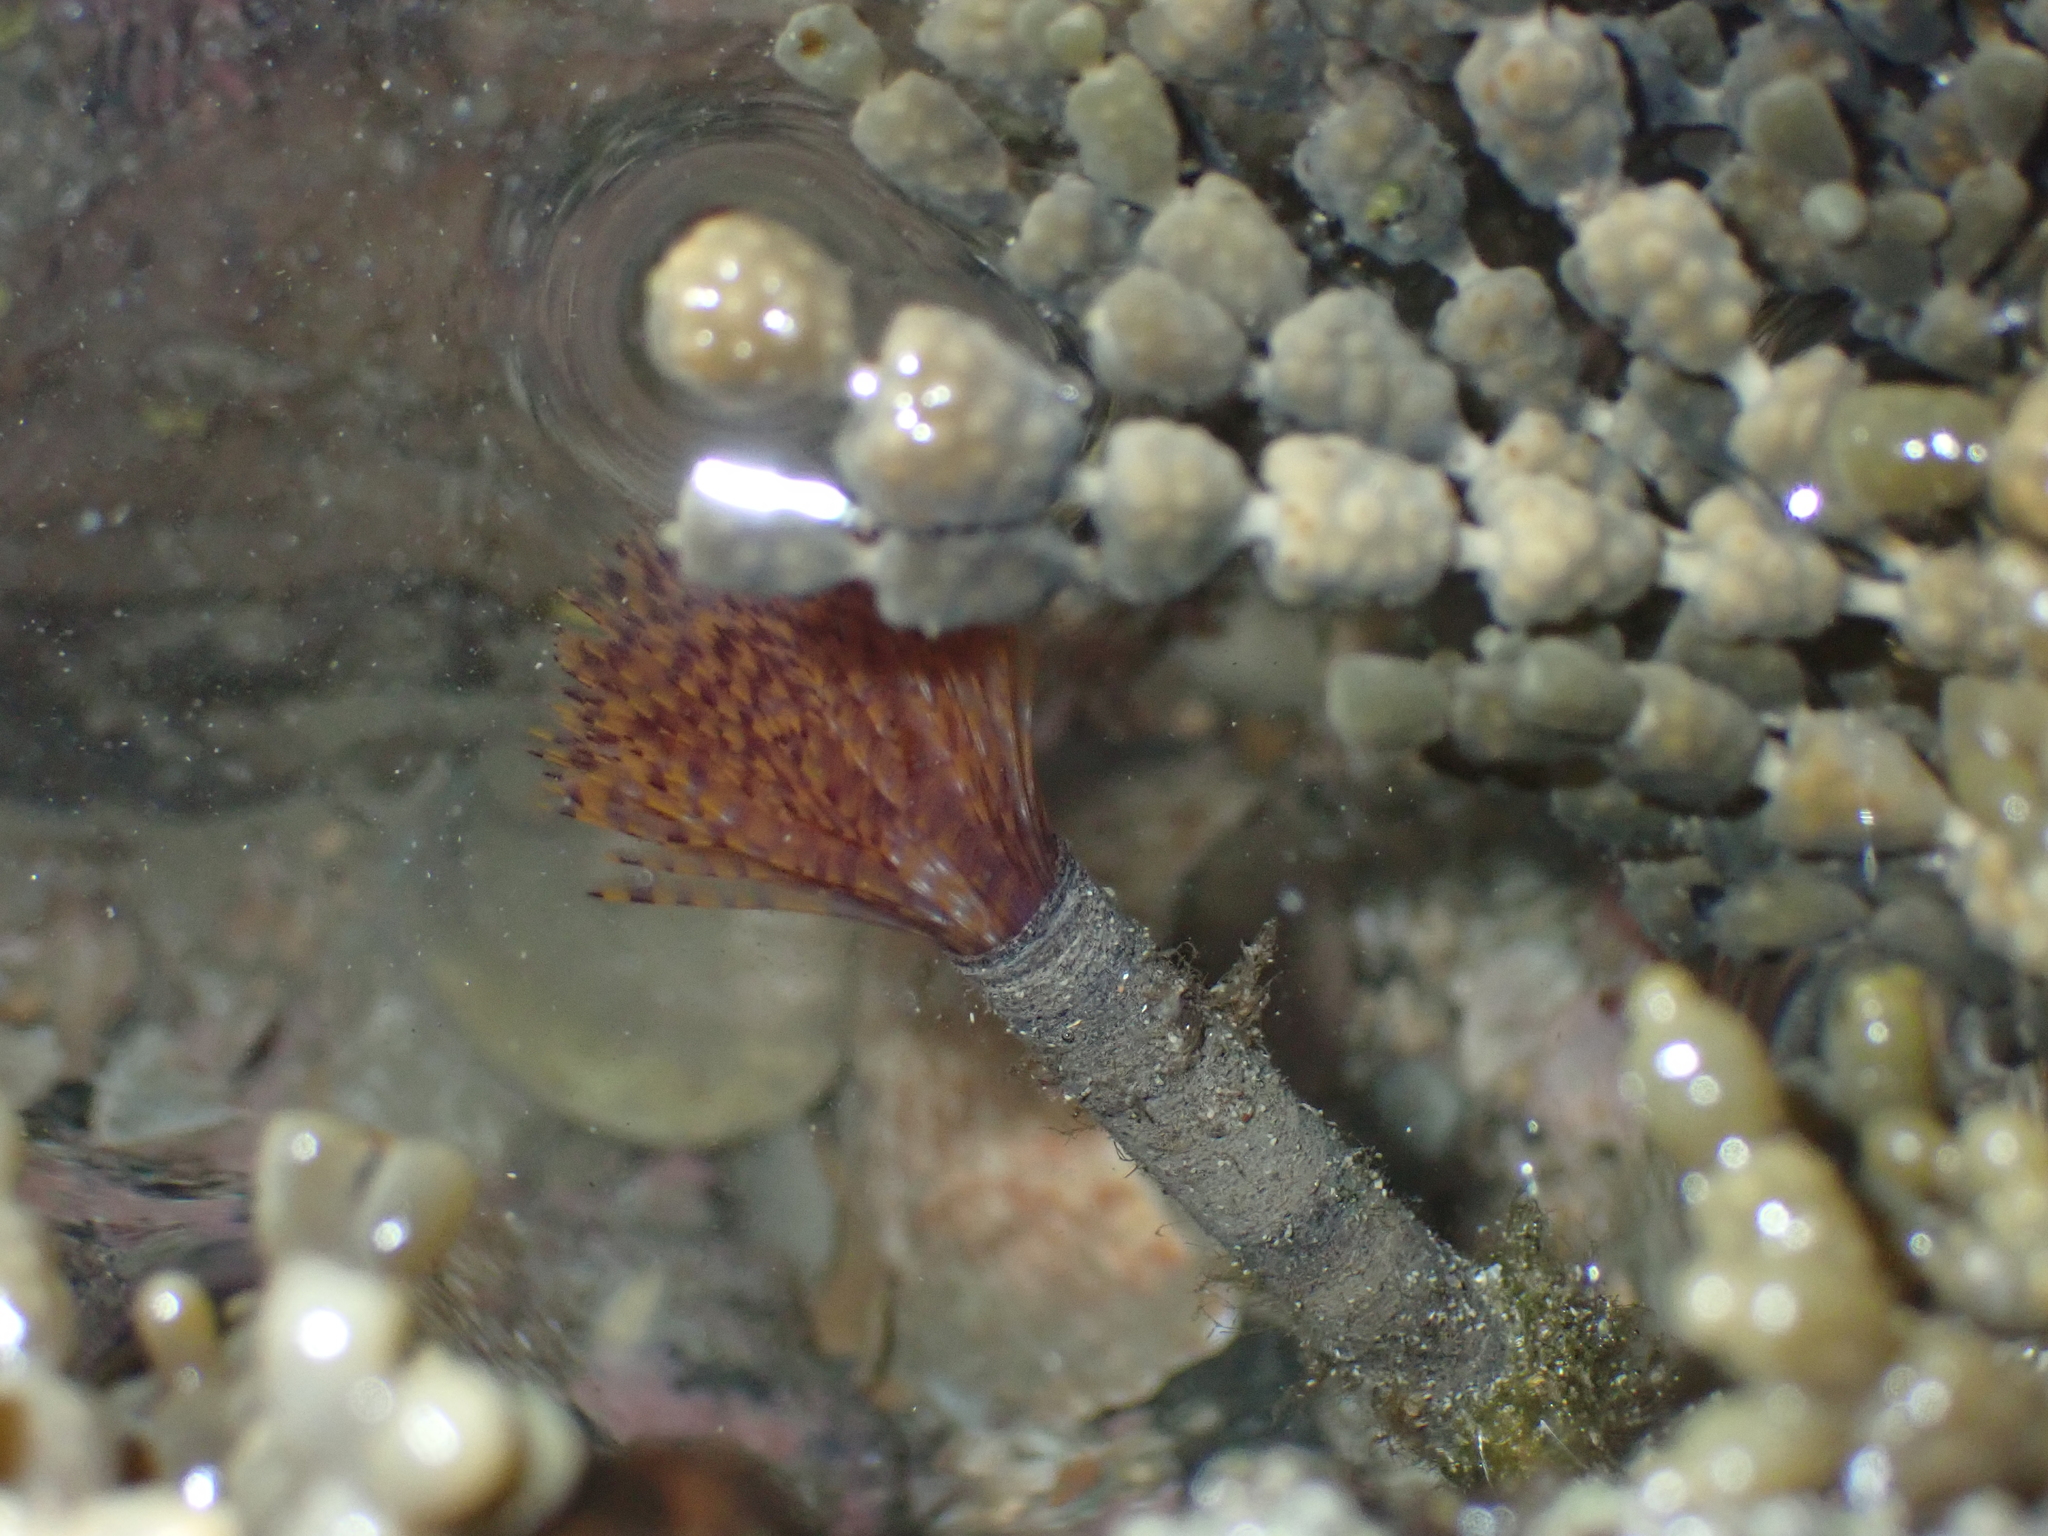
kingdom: Animalia
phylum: Annelida
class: Polychaeta
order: Sabellida
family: Sabellidae
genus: Sabella
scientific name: Sabella spallanzanii
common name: Feather duster worm
